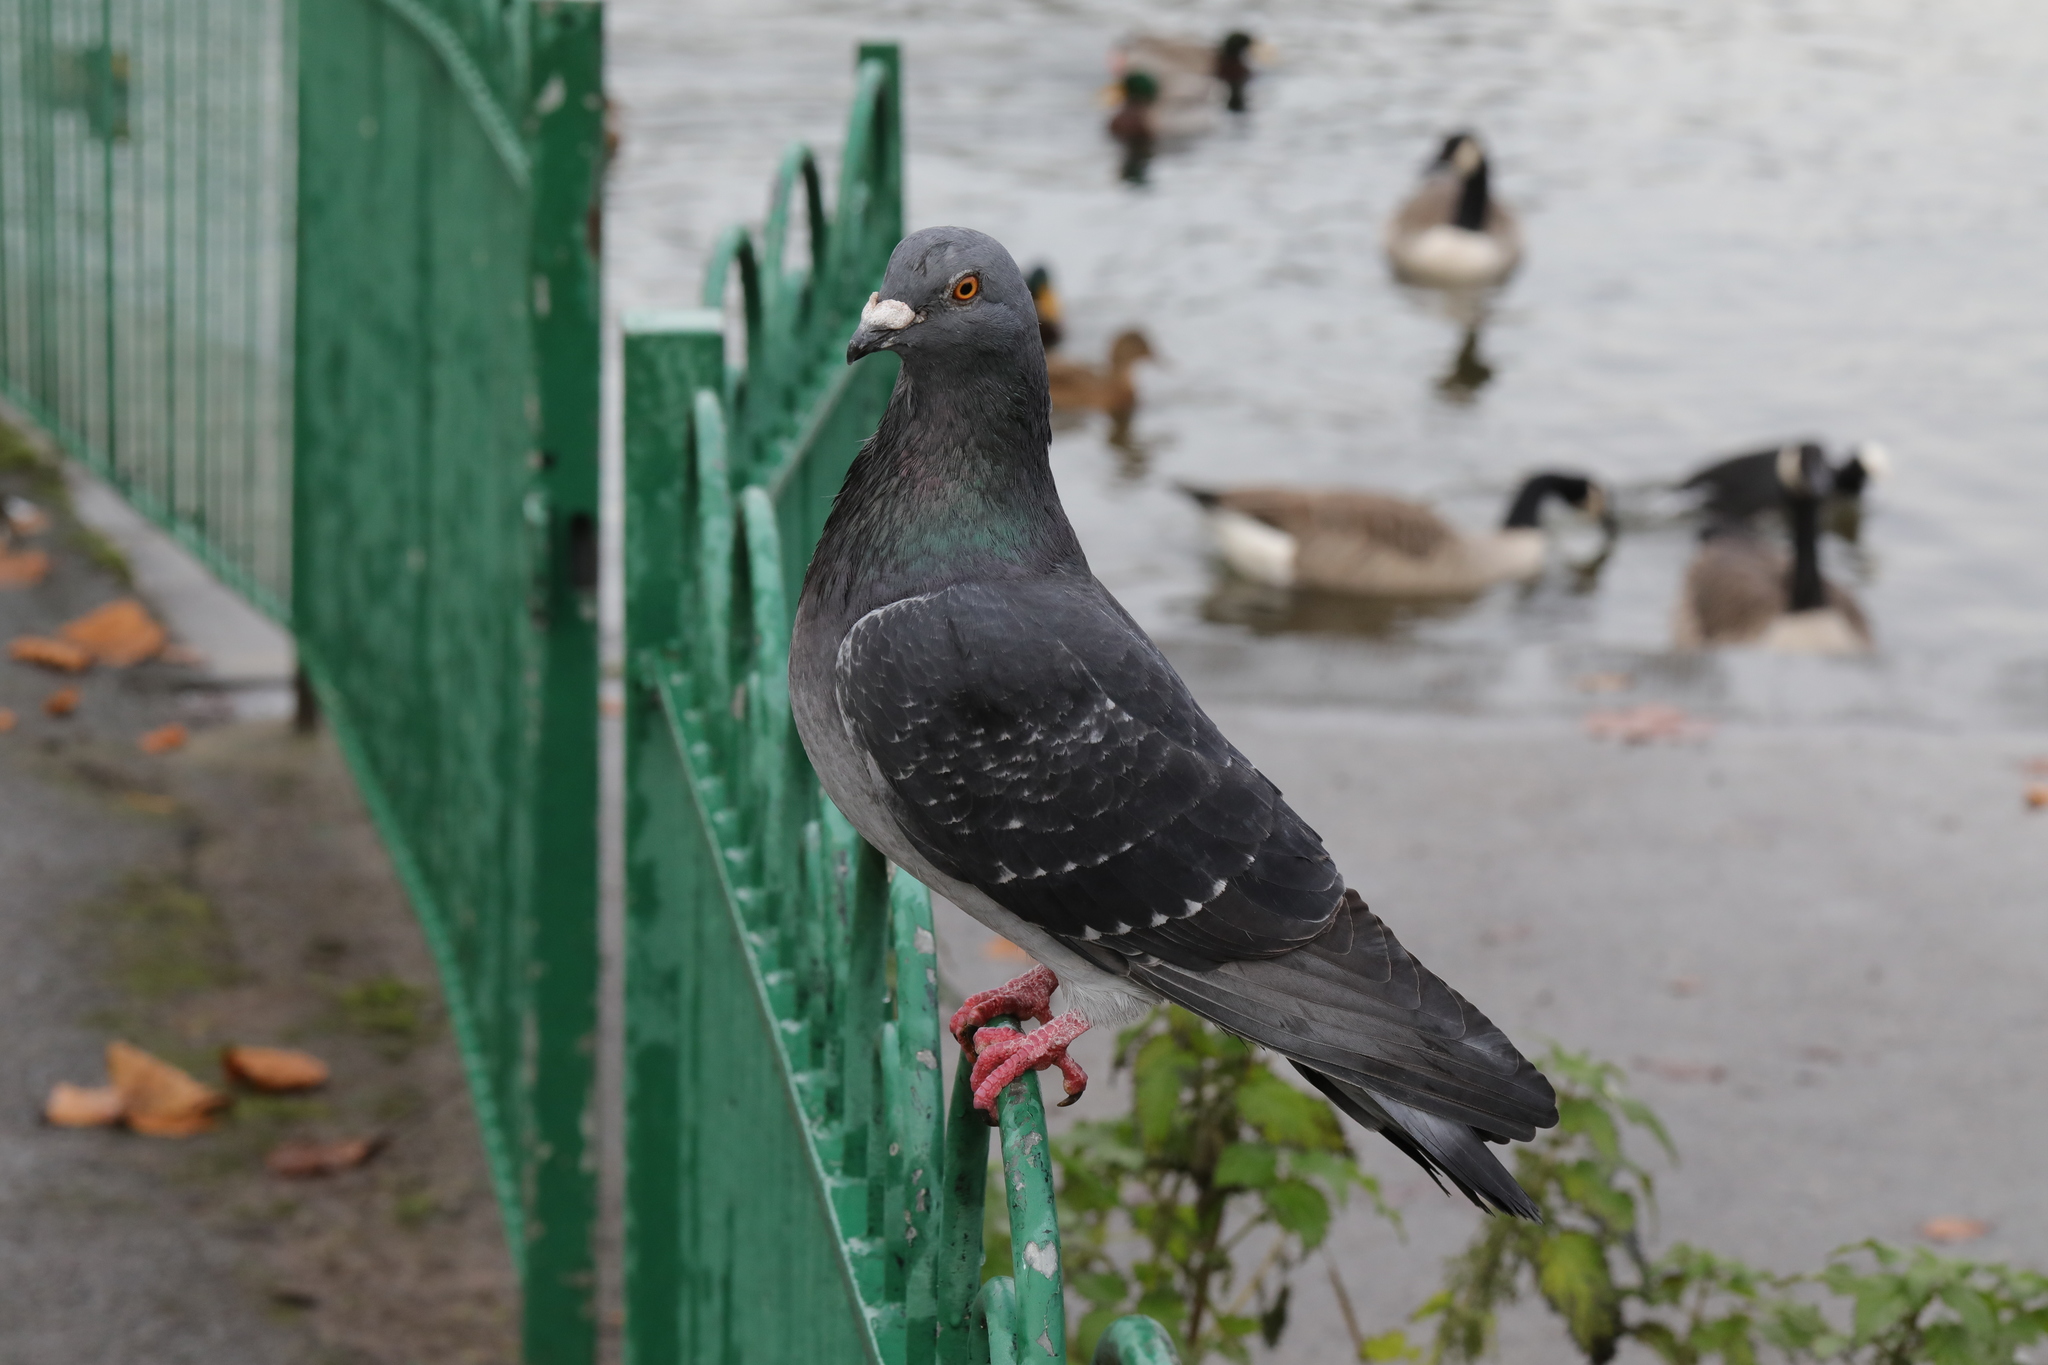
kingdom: Animalia
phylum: Chordata
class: Aves
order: Columbiformes
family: Columbidae
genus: Columba
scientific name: Columba livia
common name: Rock pigeon
